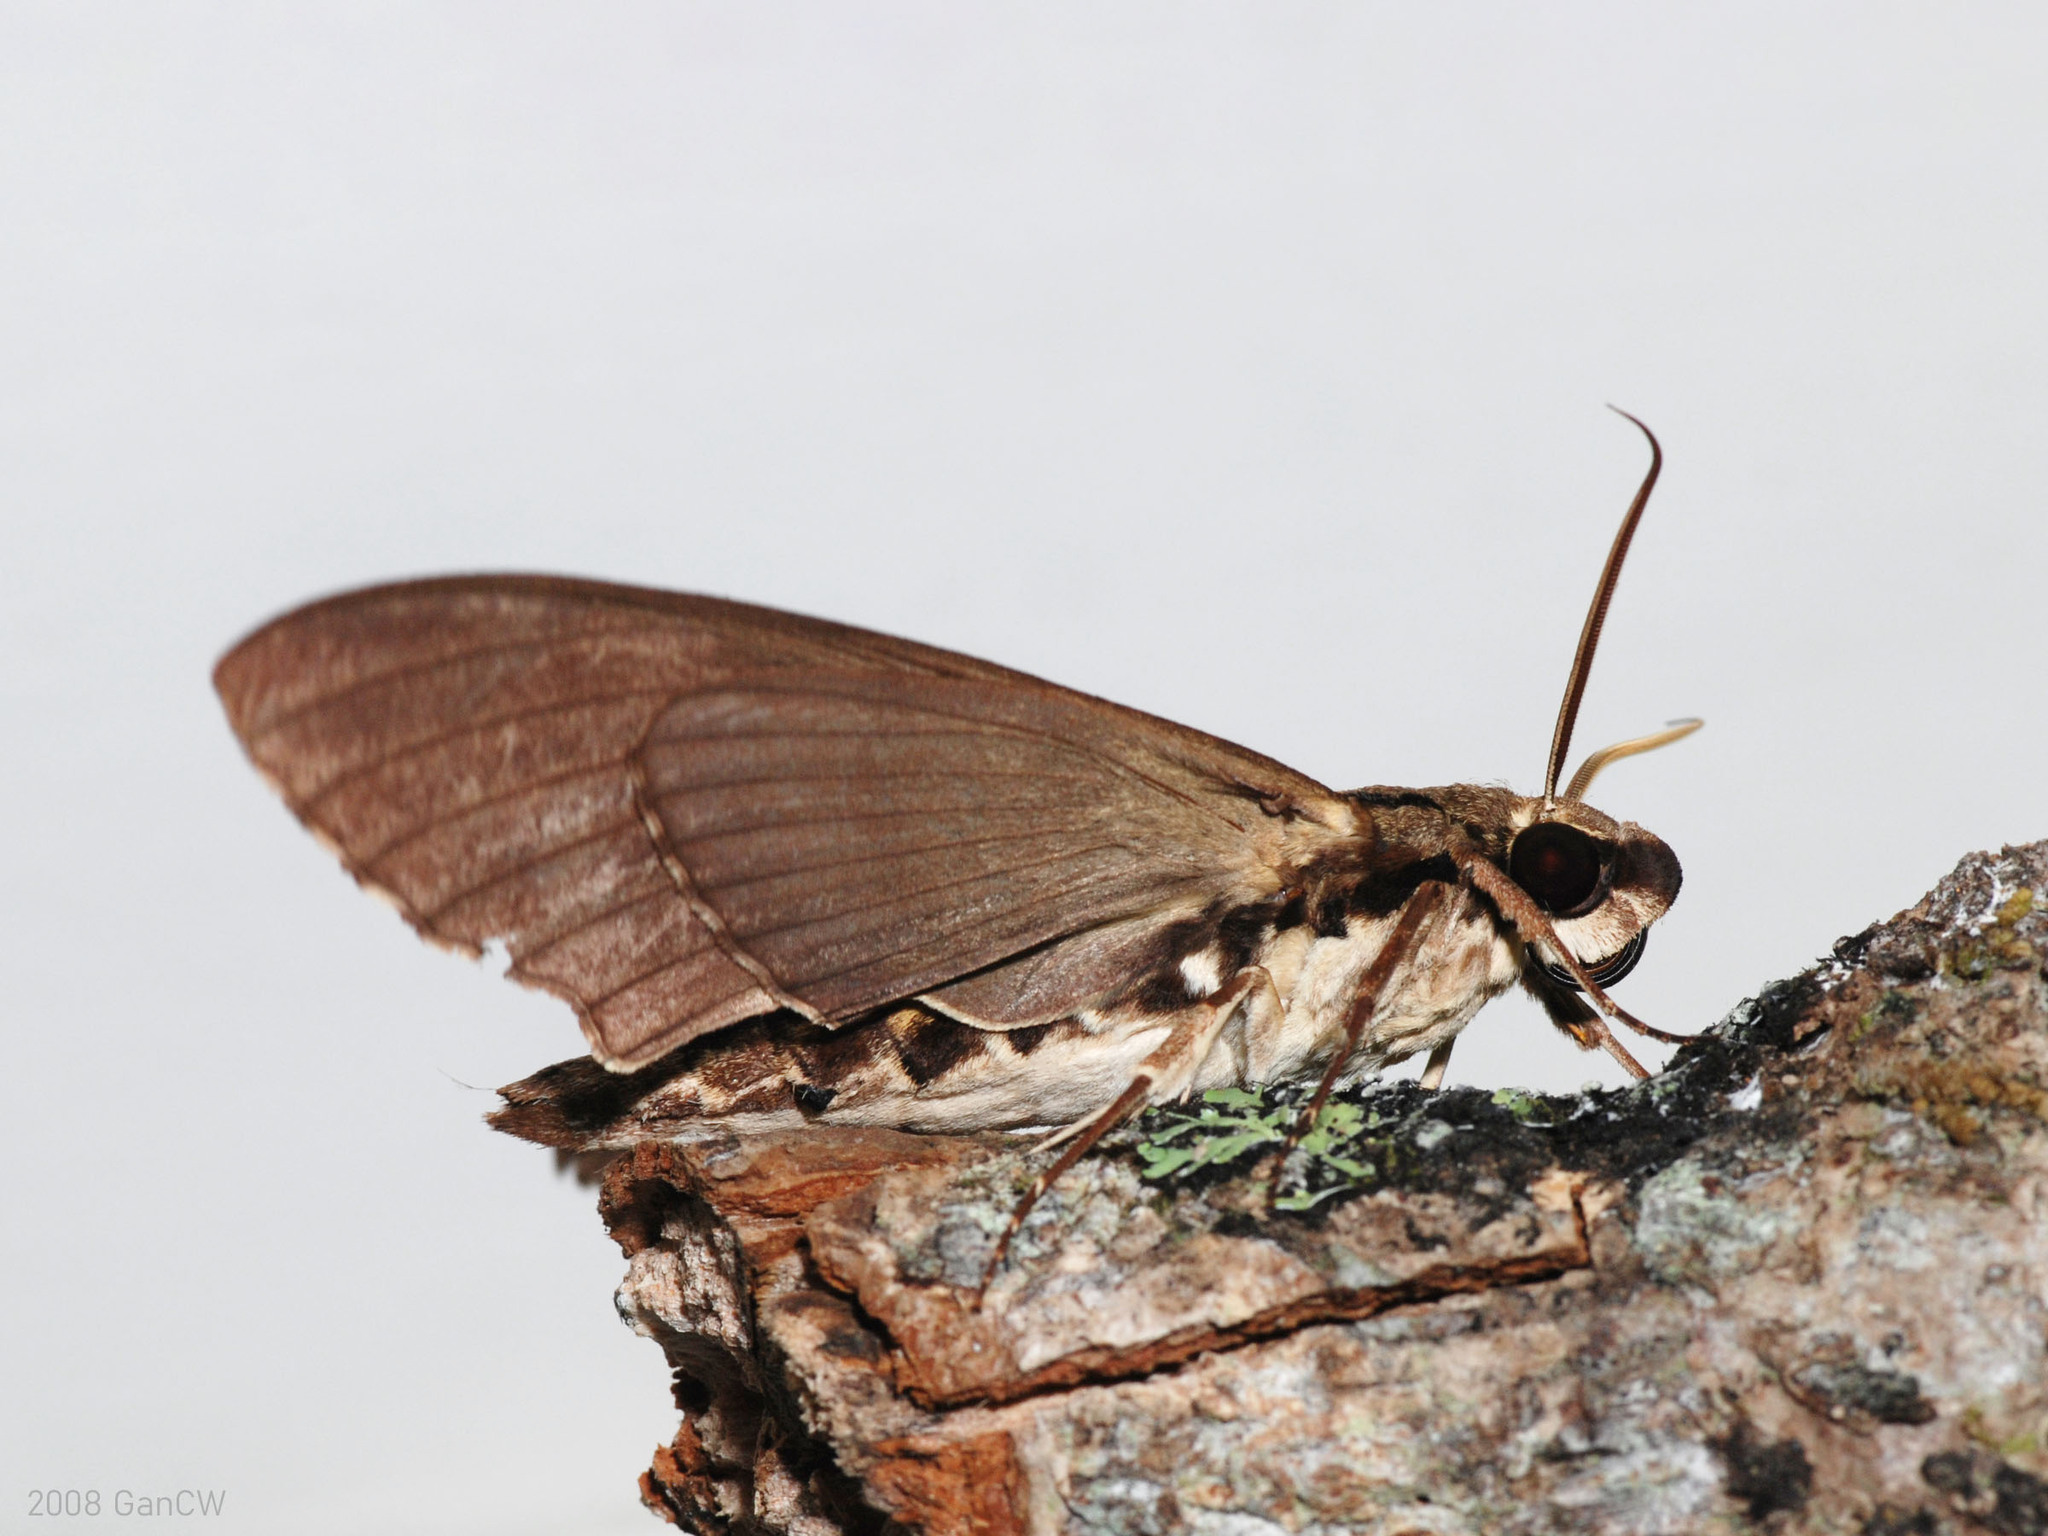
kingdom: Animalia
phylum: Arthropoda
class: Insecta
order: Lepidoptera
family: Sphingidae
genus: Cerberonoton
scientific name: Cerberonoton rubescens
